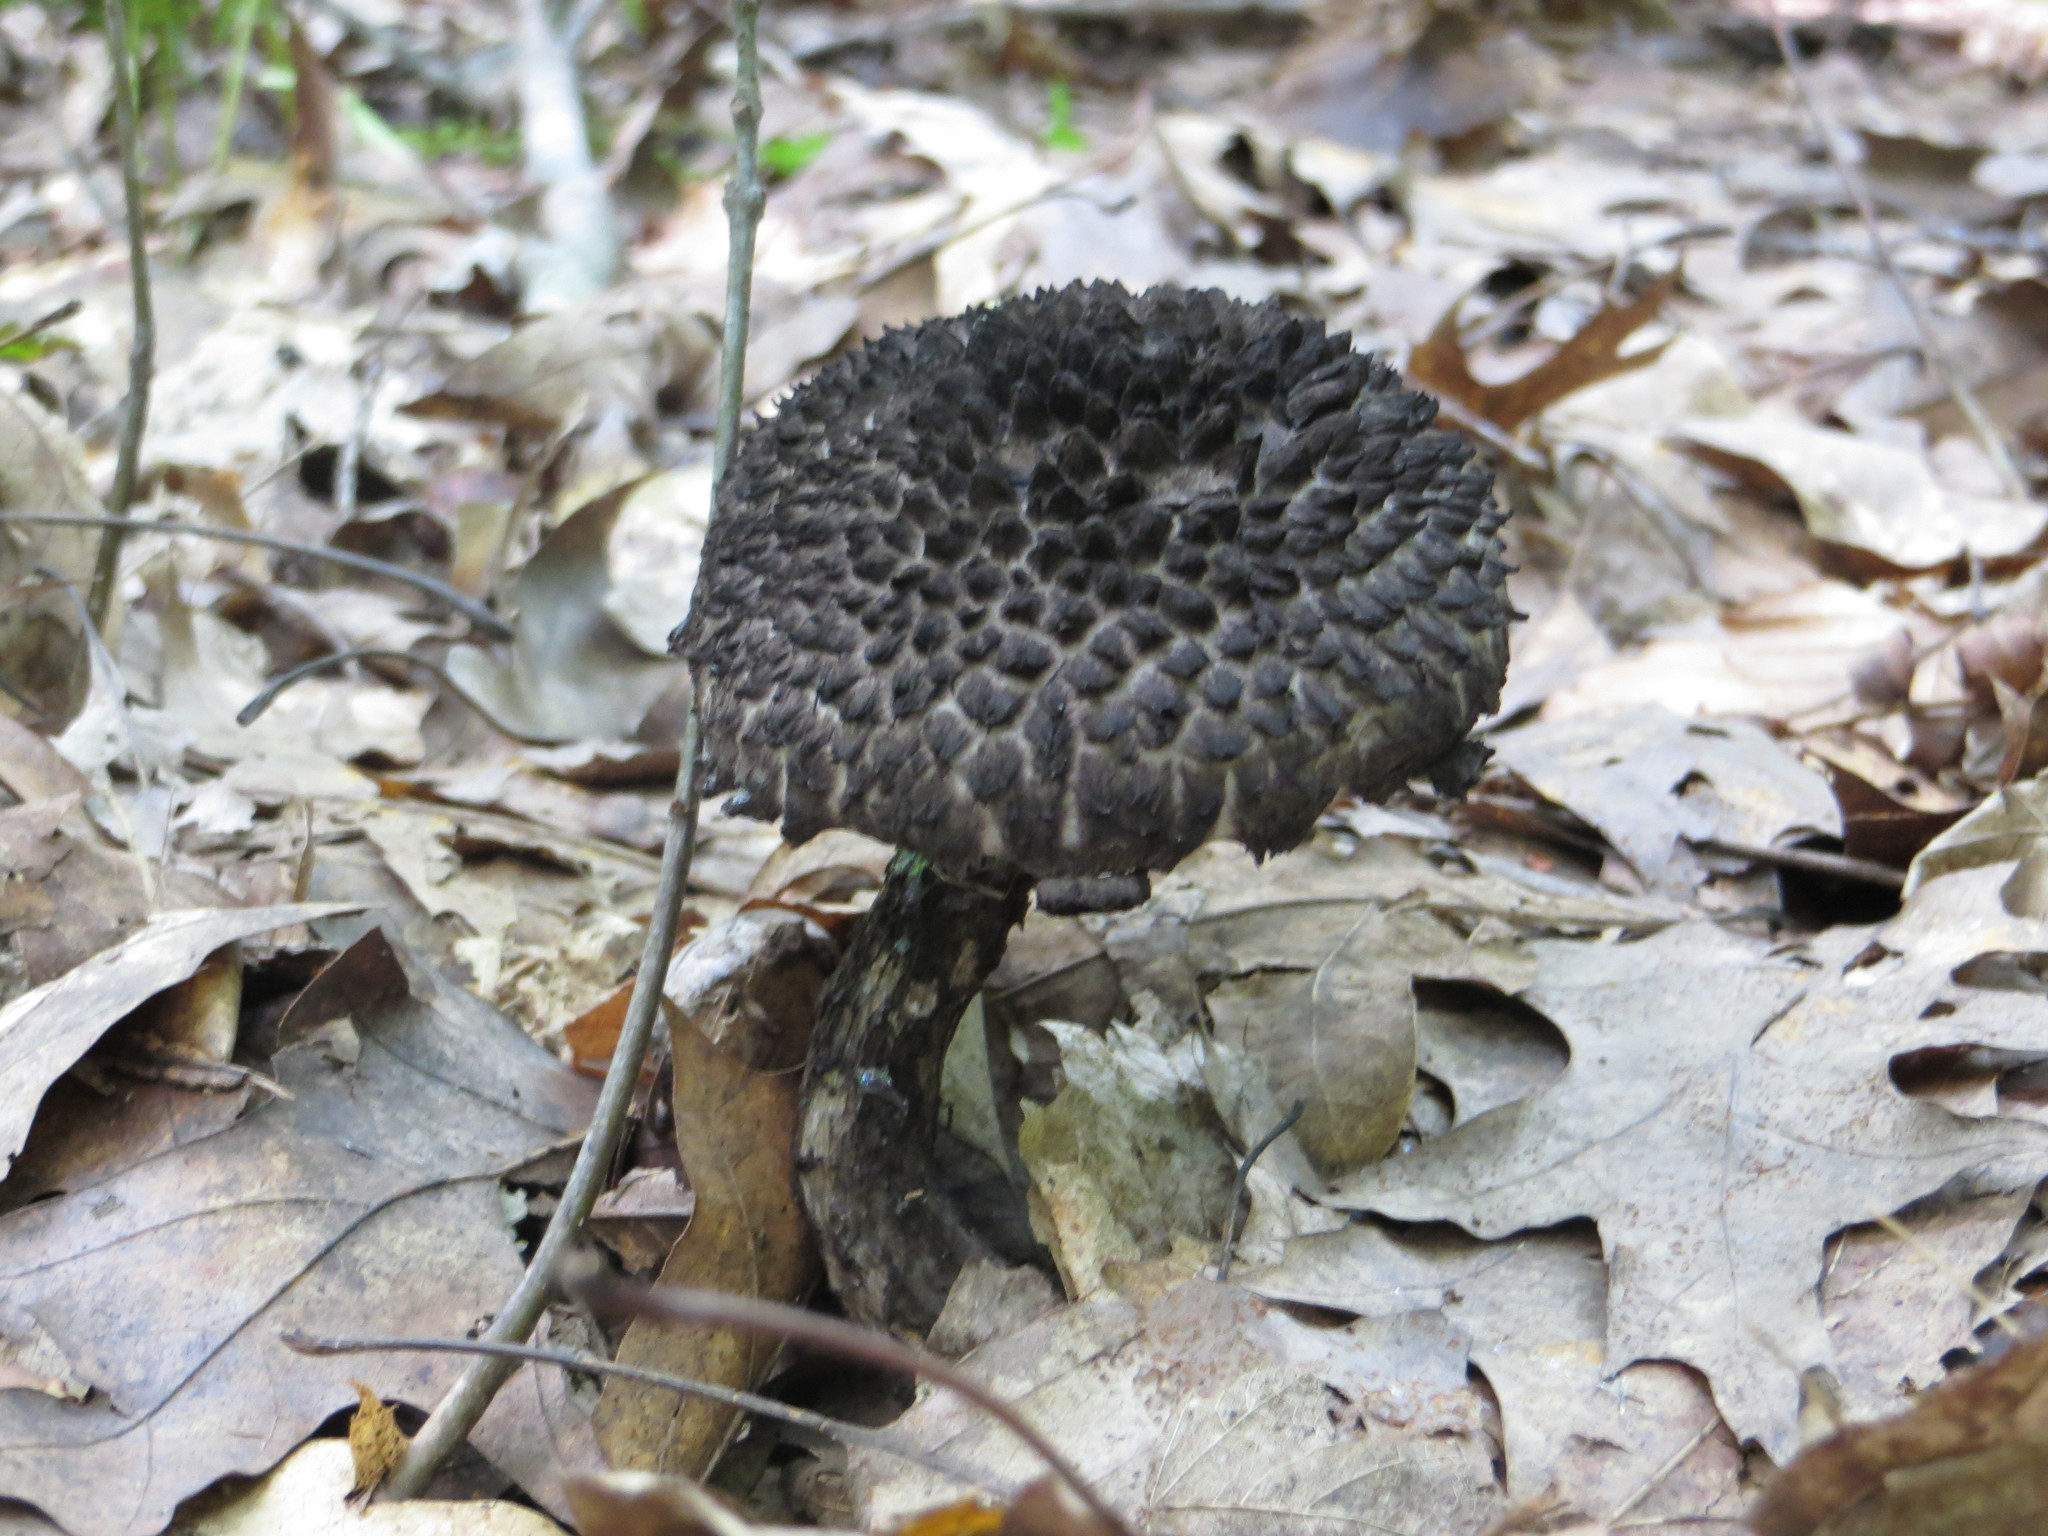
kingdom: Fungi
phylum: Basidiomycota
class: Agaricomycetes
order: Boletales
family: Boletaceae
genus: Strobilomyces
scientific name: Strobilomyces strobilaceus
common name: Old man of the woods
